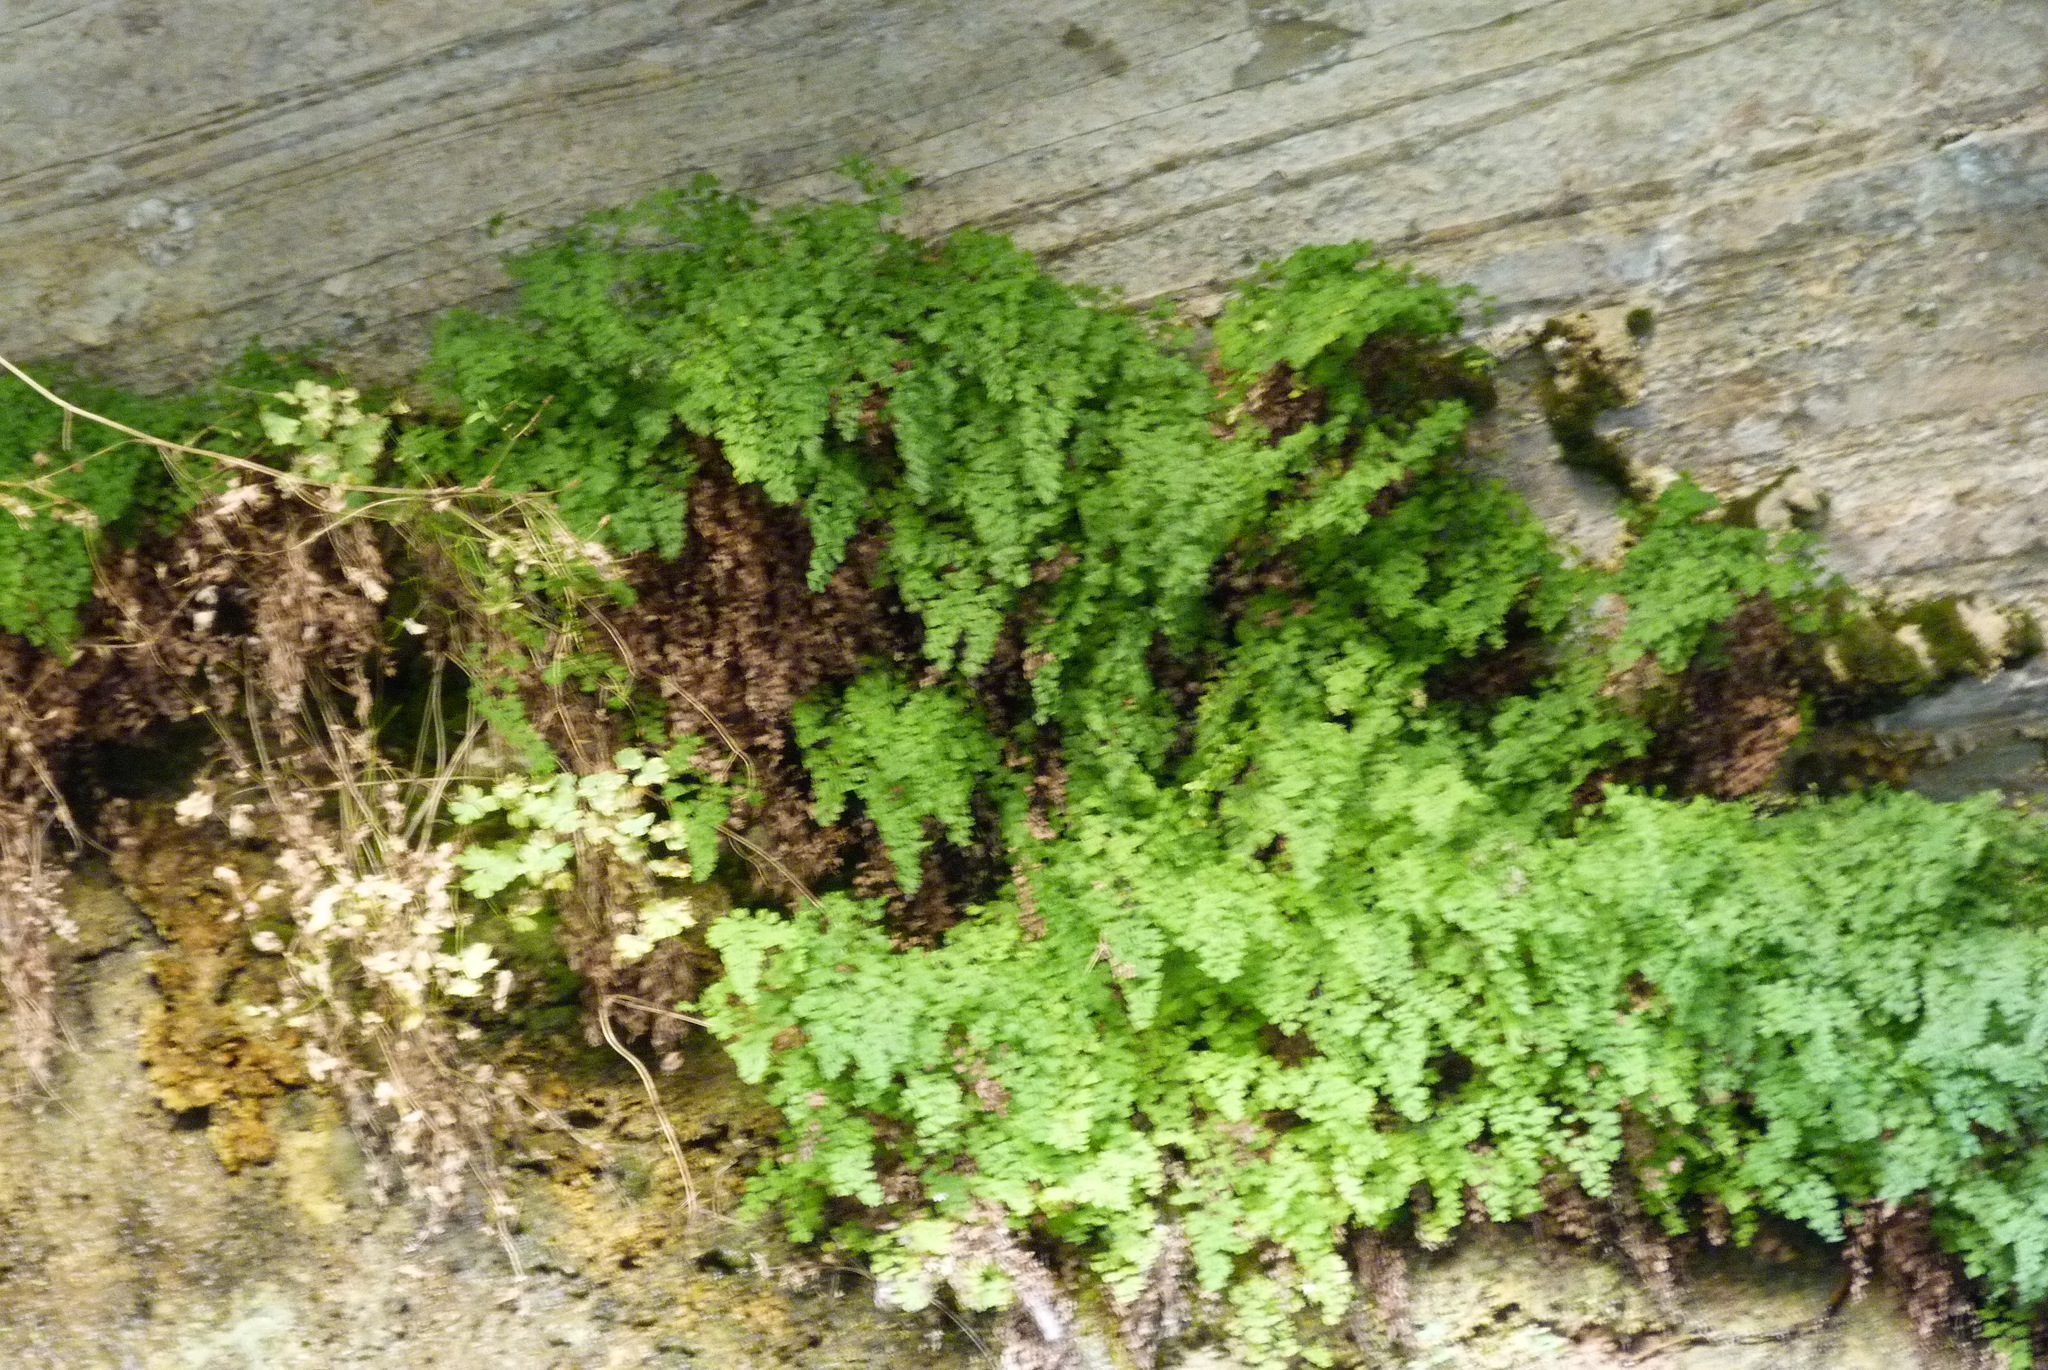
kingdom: Plantae
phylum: Tracheophyta
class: Polypodiopsida
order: Polypodiales
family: Pteridaceae
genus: Adiantum
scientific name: Adiantum capillus-veneris
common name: Maidenhair fern
